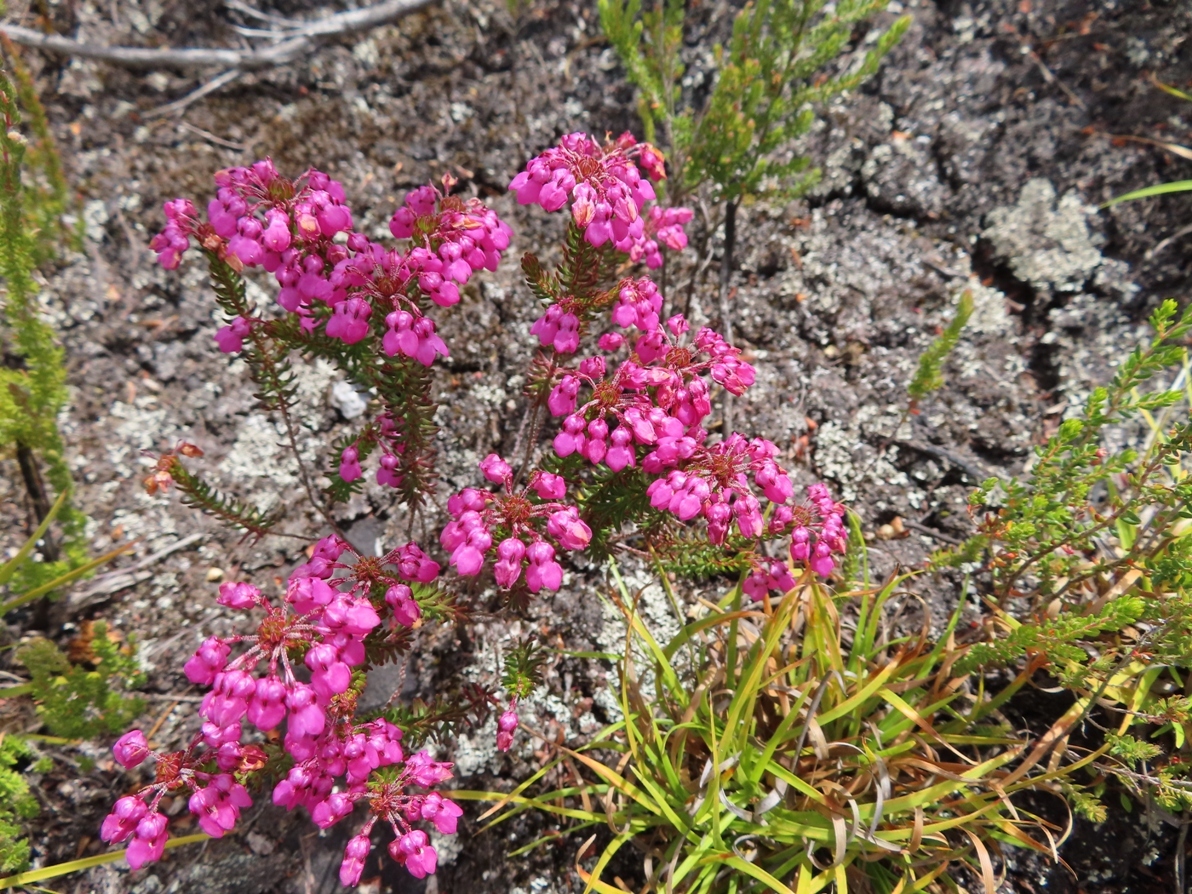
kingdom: Plantae
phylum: Tracheophyta
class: Magnoliopsida
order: Ericales
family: Ericaceae
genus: Erica
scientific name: Erica cubica
